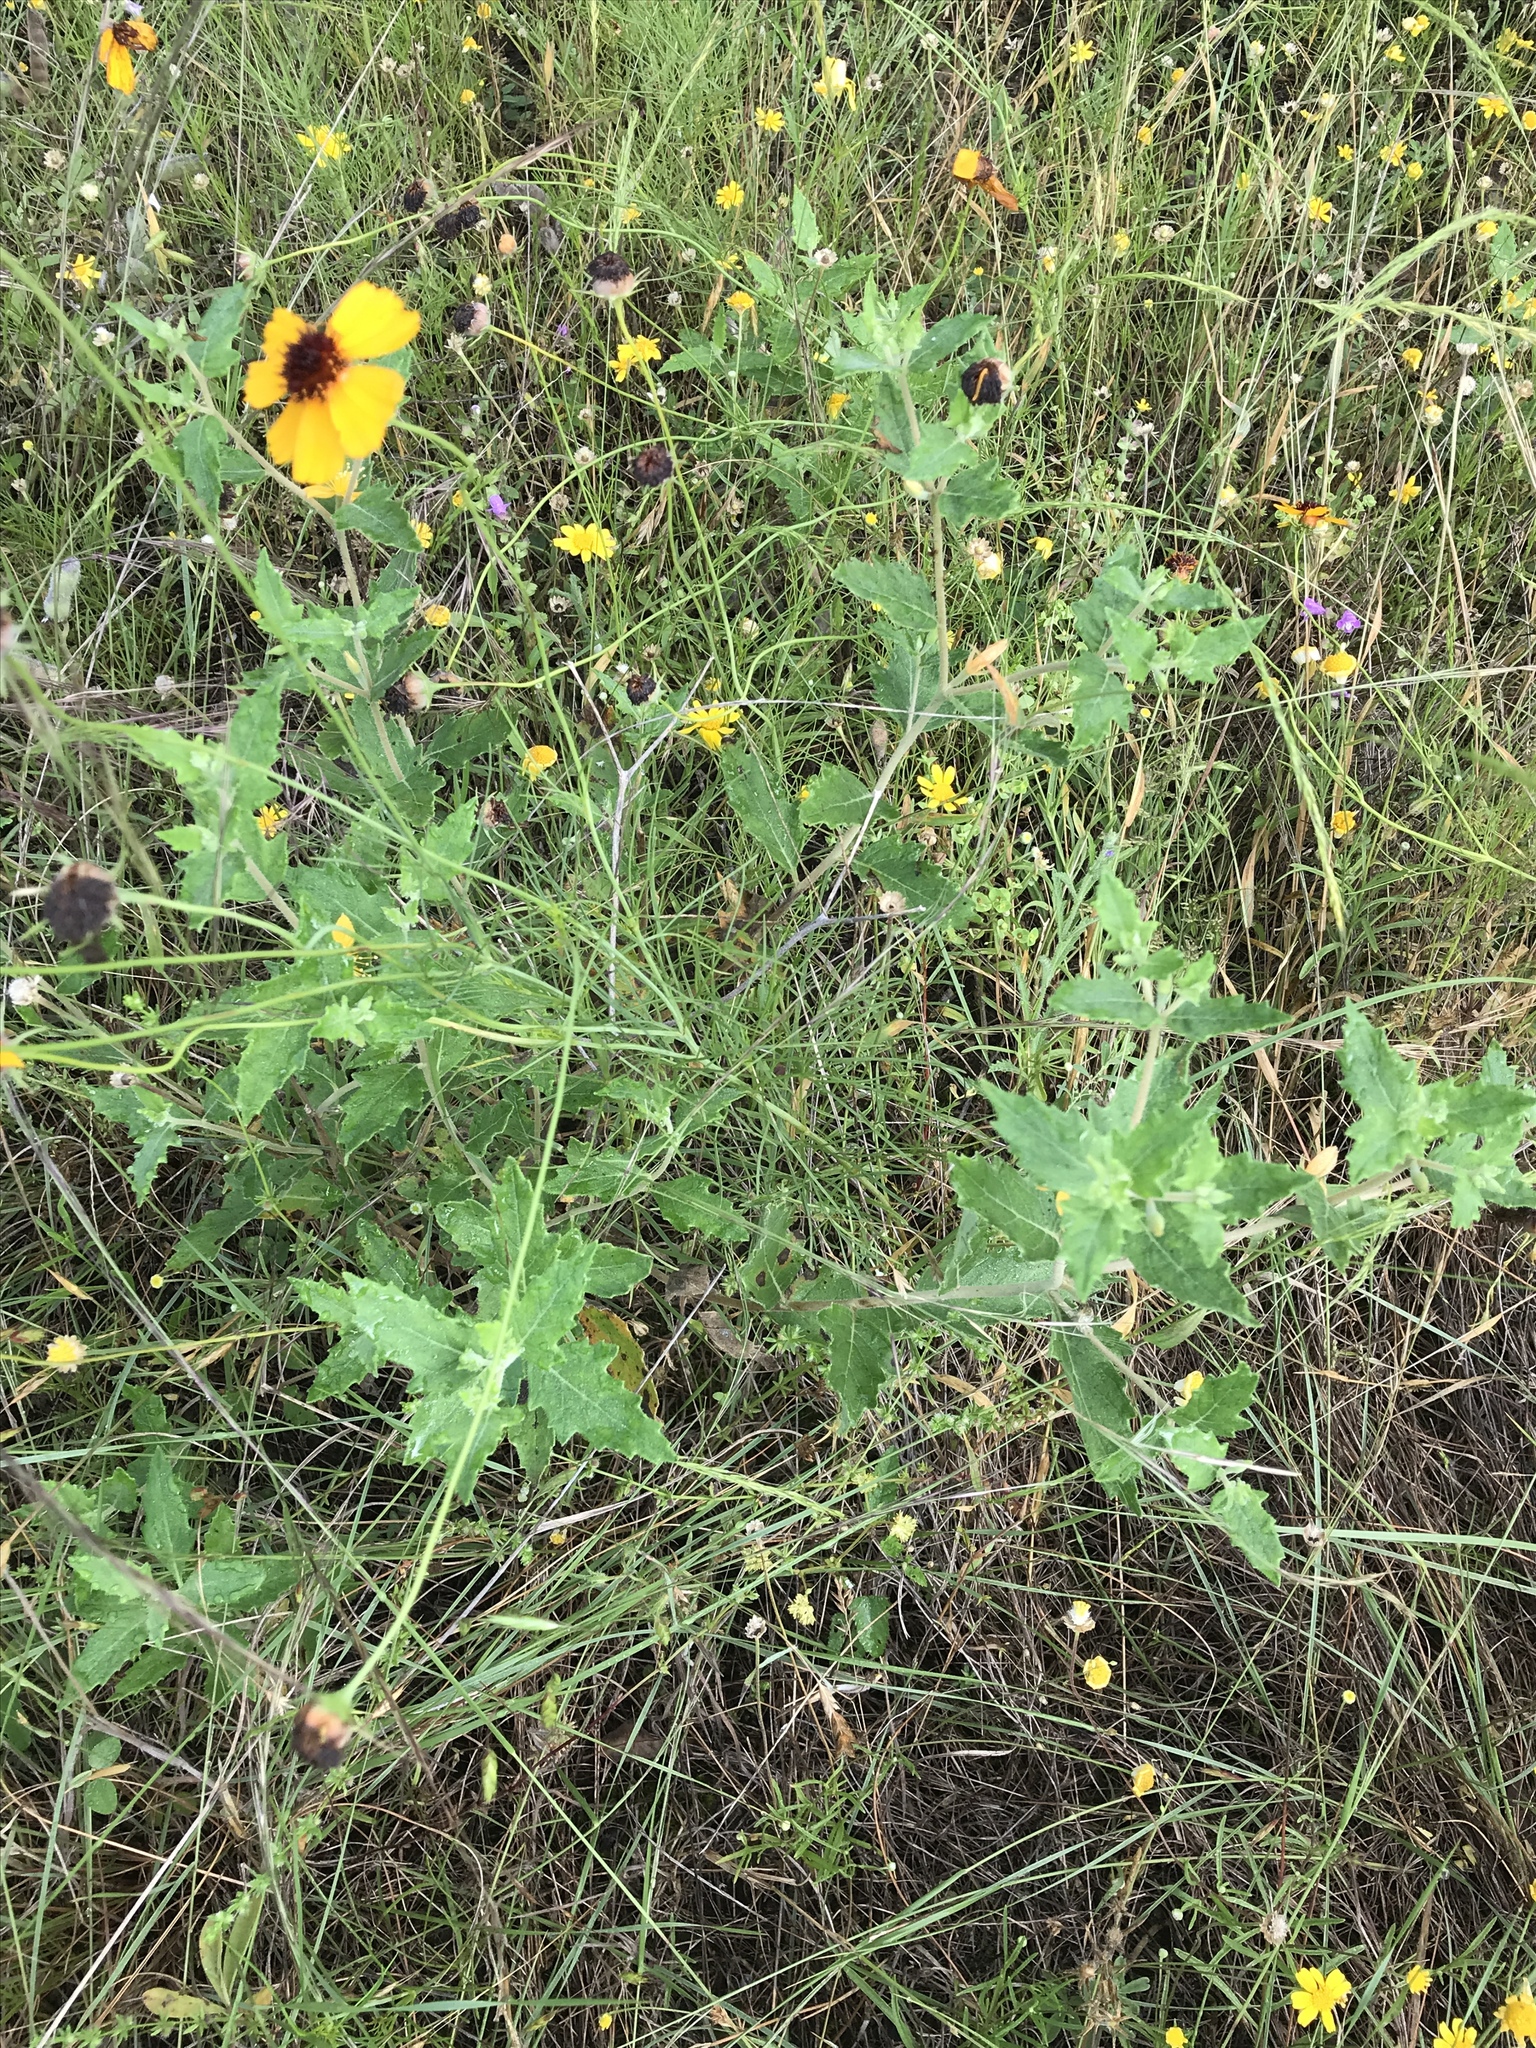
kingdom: Plantae
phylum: Tracheophyta
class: Magnoliopsida
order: Cornales
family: Loasaceae
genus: Mentzelia
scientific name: Mentzelia oligosperma
